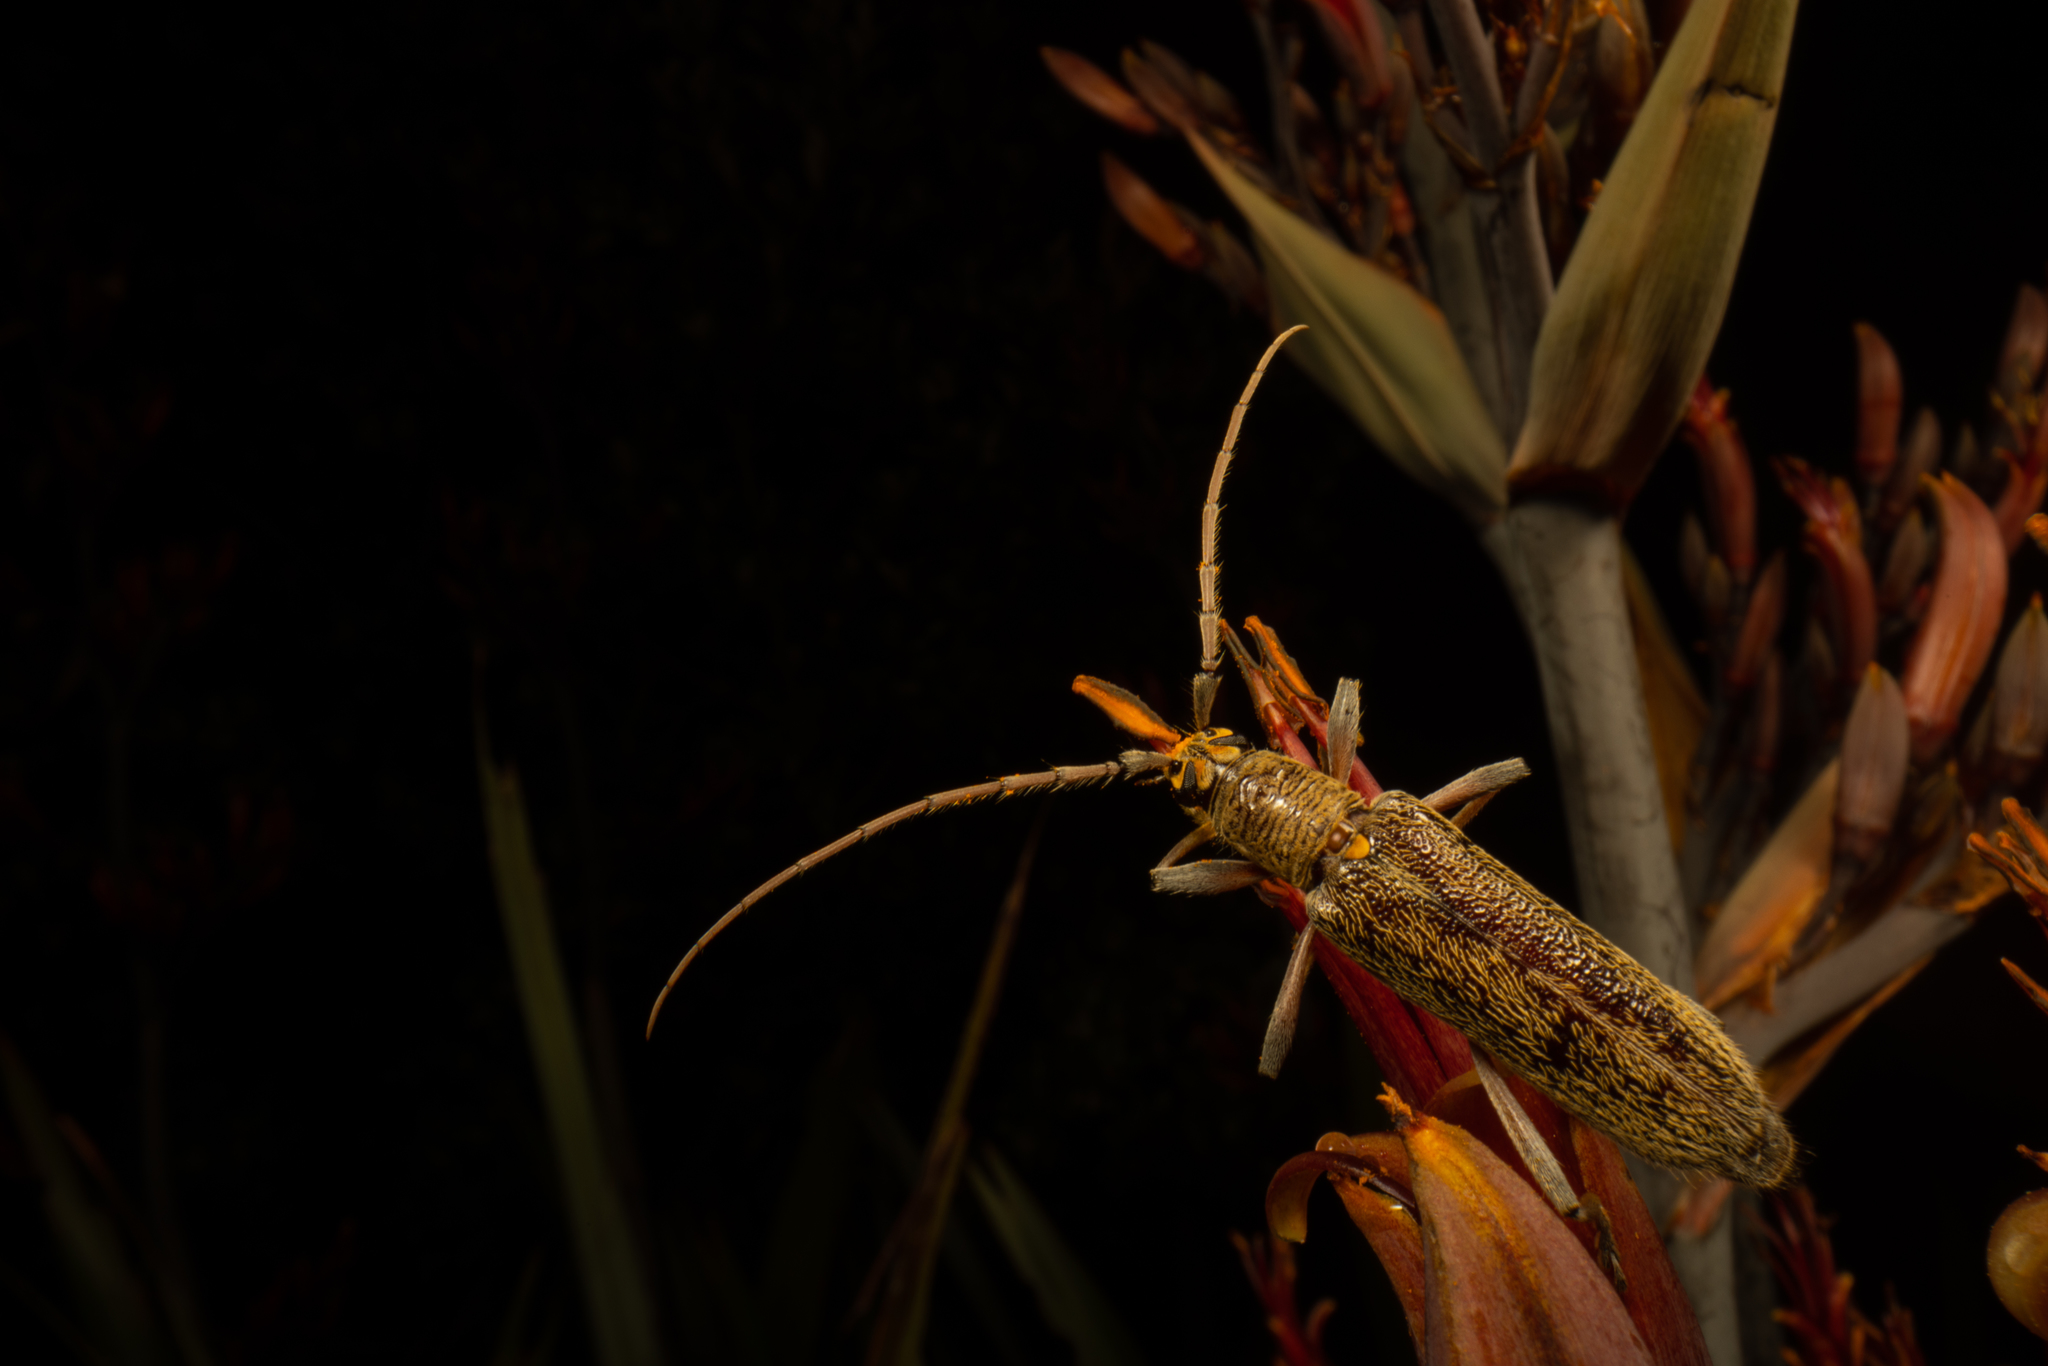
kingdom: Animalia
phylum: Arthropoda
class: Insecta
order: Coleoptera
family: Cerambycidae
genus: Oemona
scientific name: Oemona hirta
